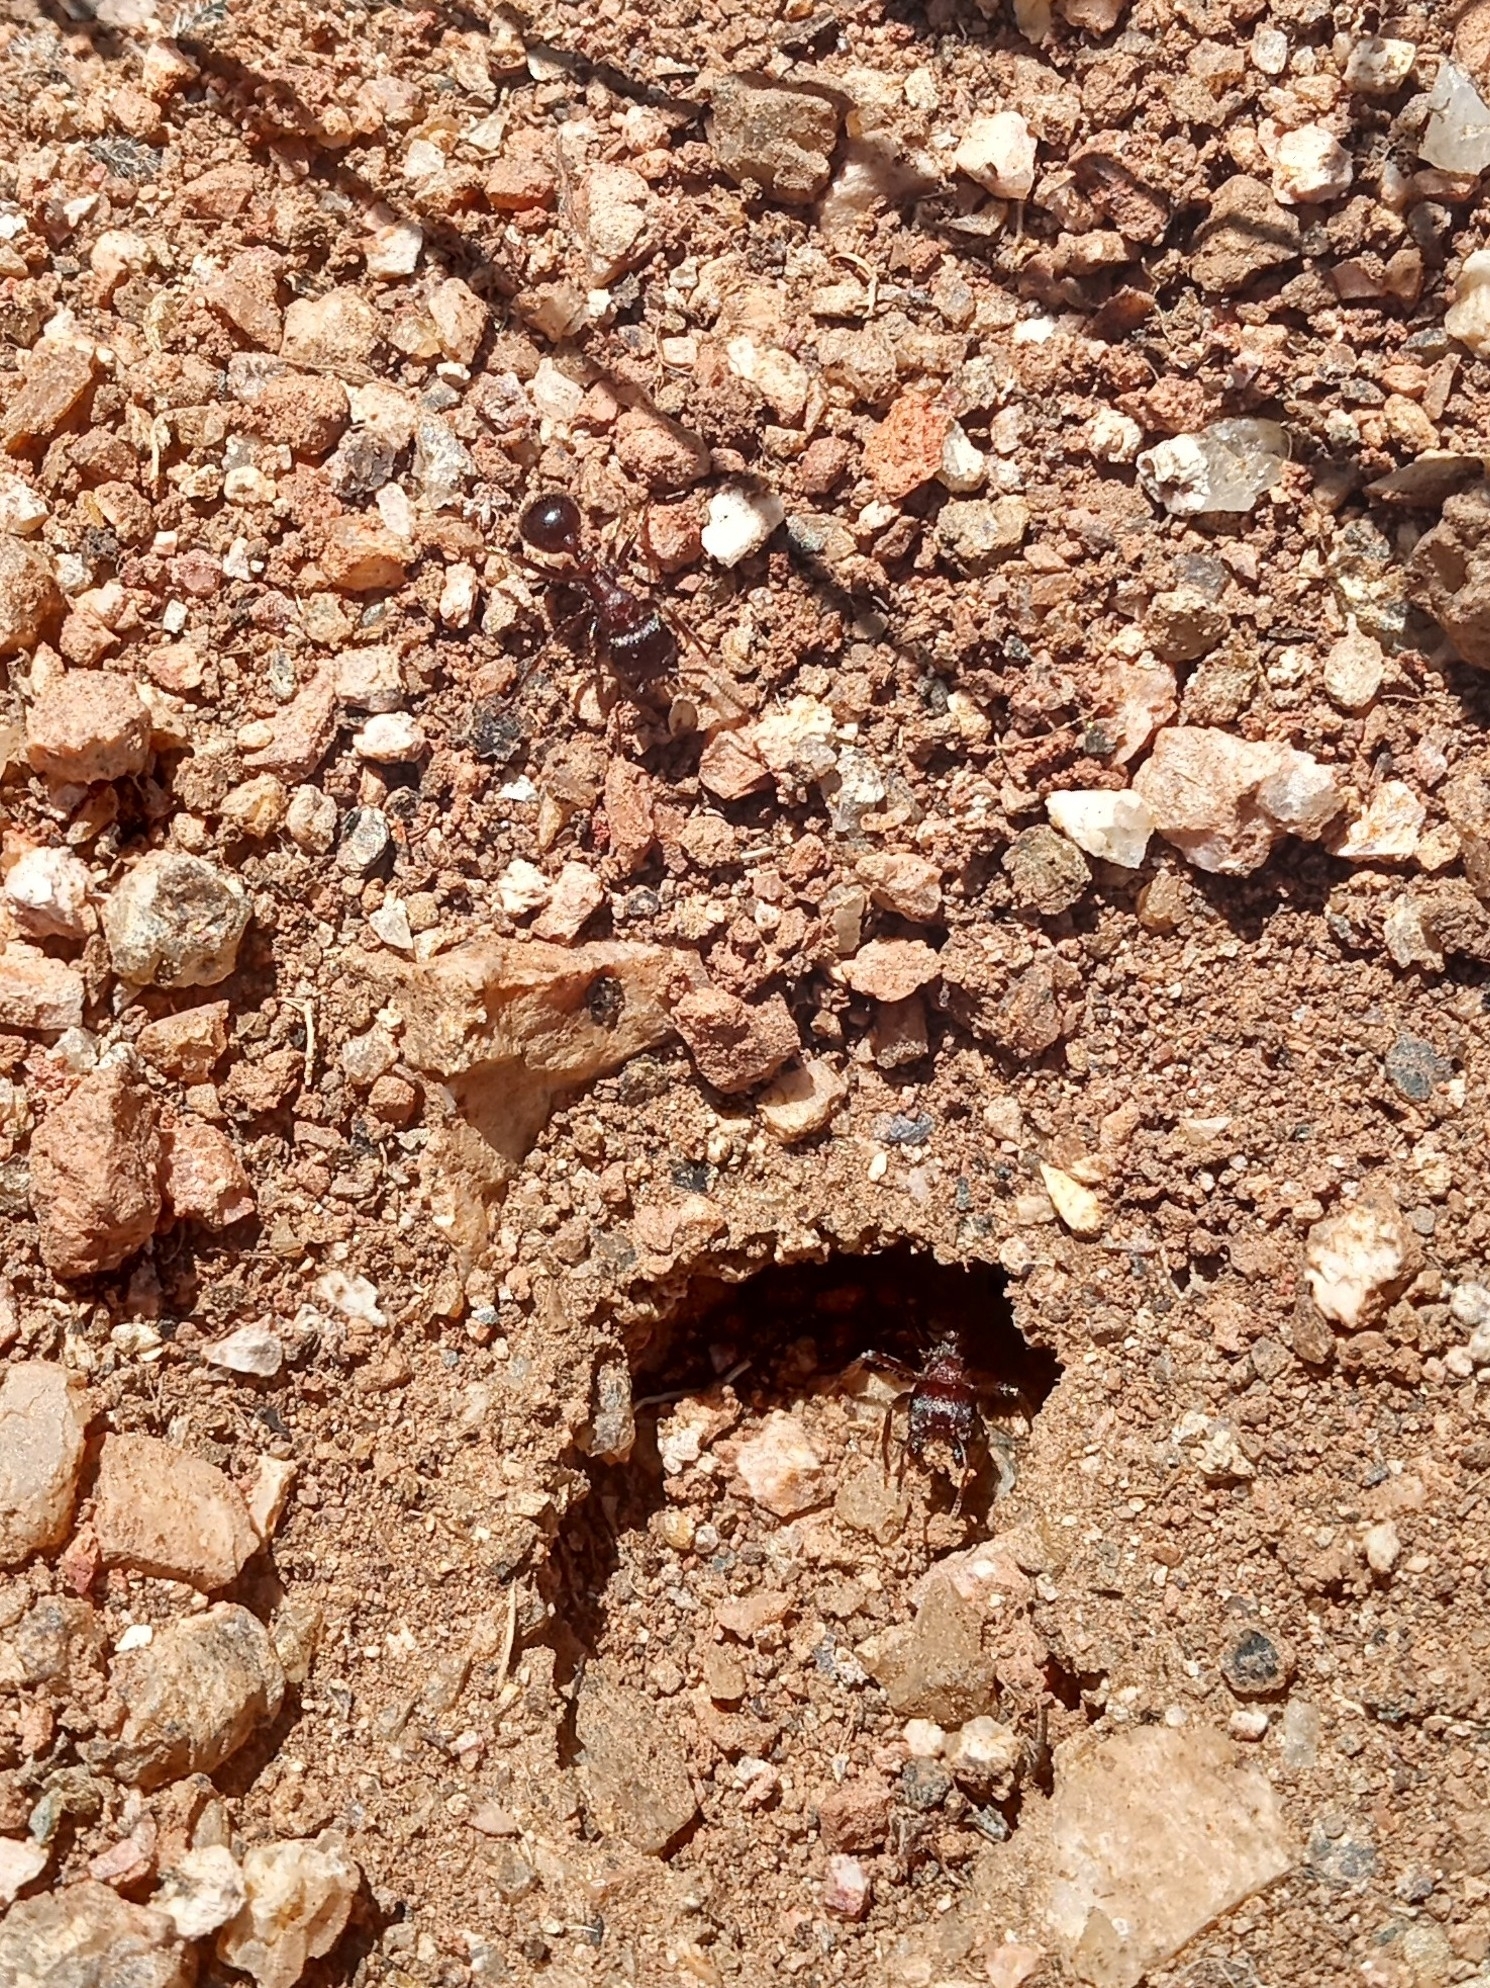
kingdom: Animalia
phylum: Arthropoda
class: Insecta
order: Hymenoptera
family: Formicidae
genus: Pogonomyrmex
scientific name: Pogonomyrmex rugosus
